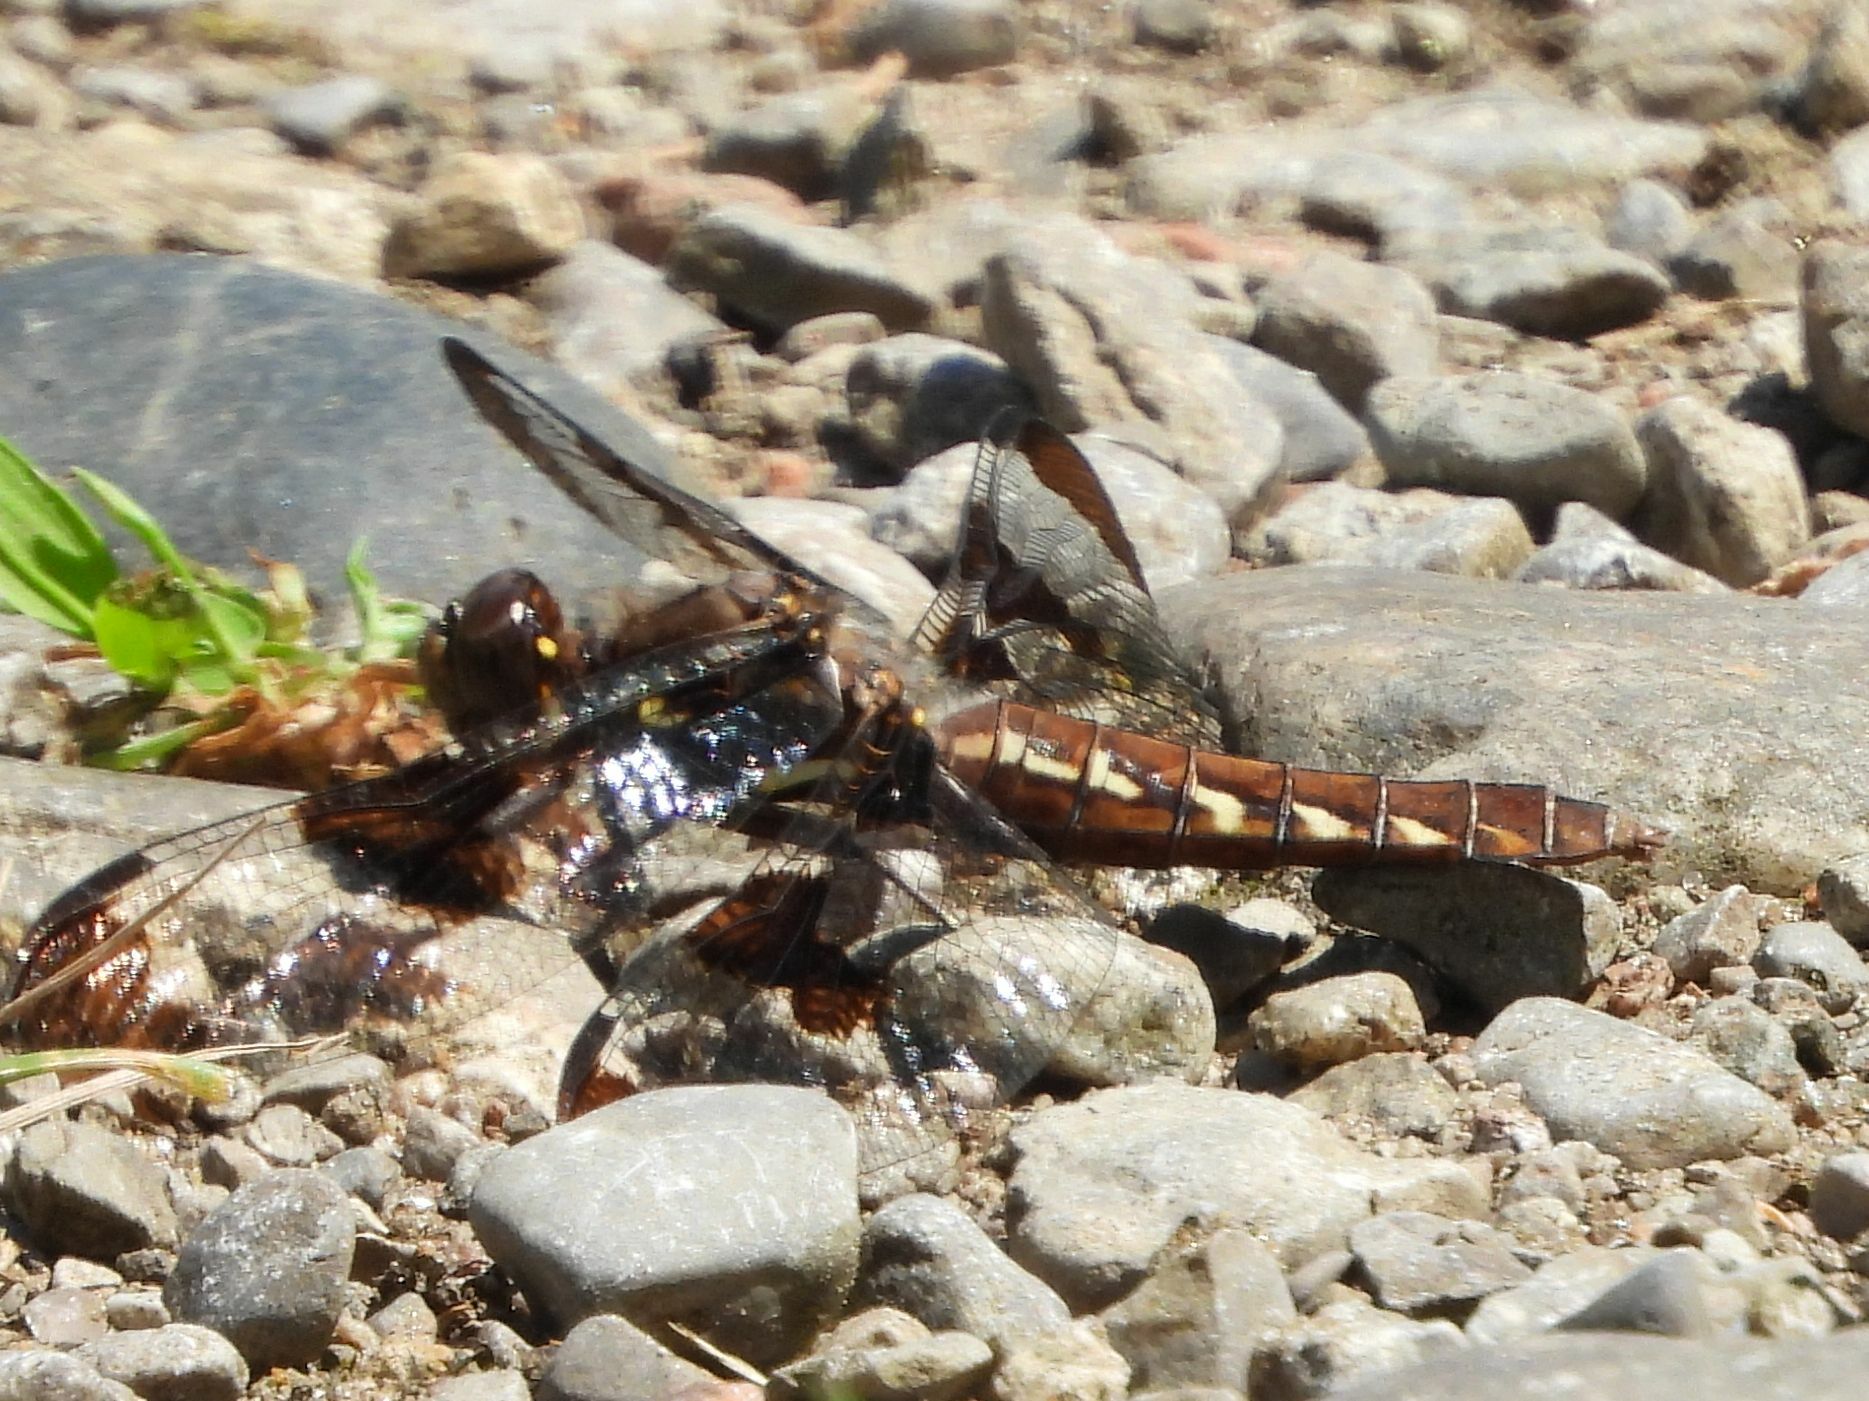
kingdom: Animalia
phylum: Arthropoda
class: Insecta
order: Odonata
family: Libellulidae
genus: Plathemis
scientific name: Plathemis lydia
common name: Common whitetail
